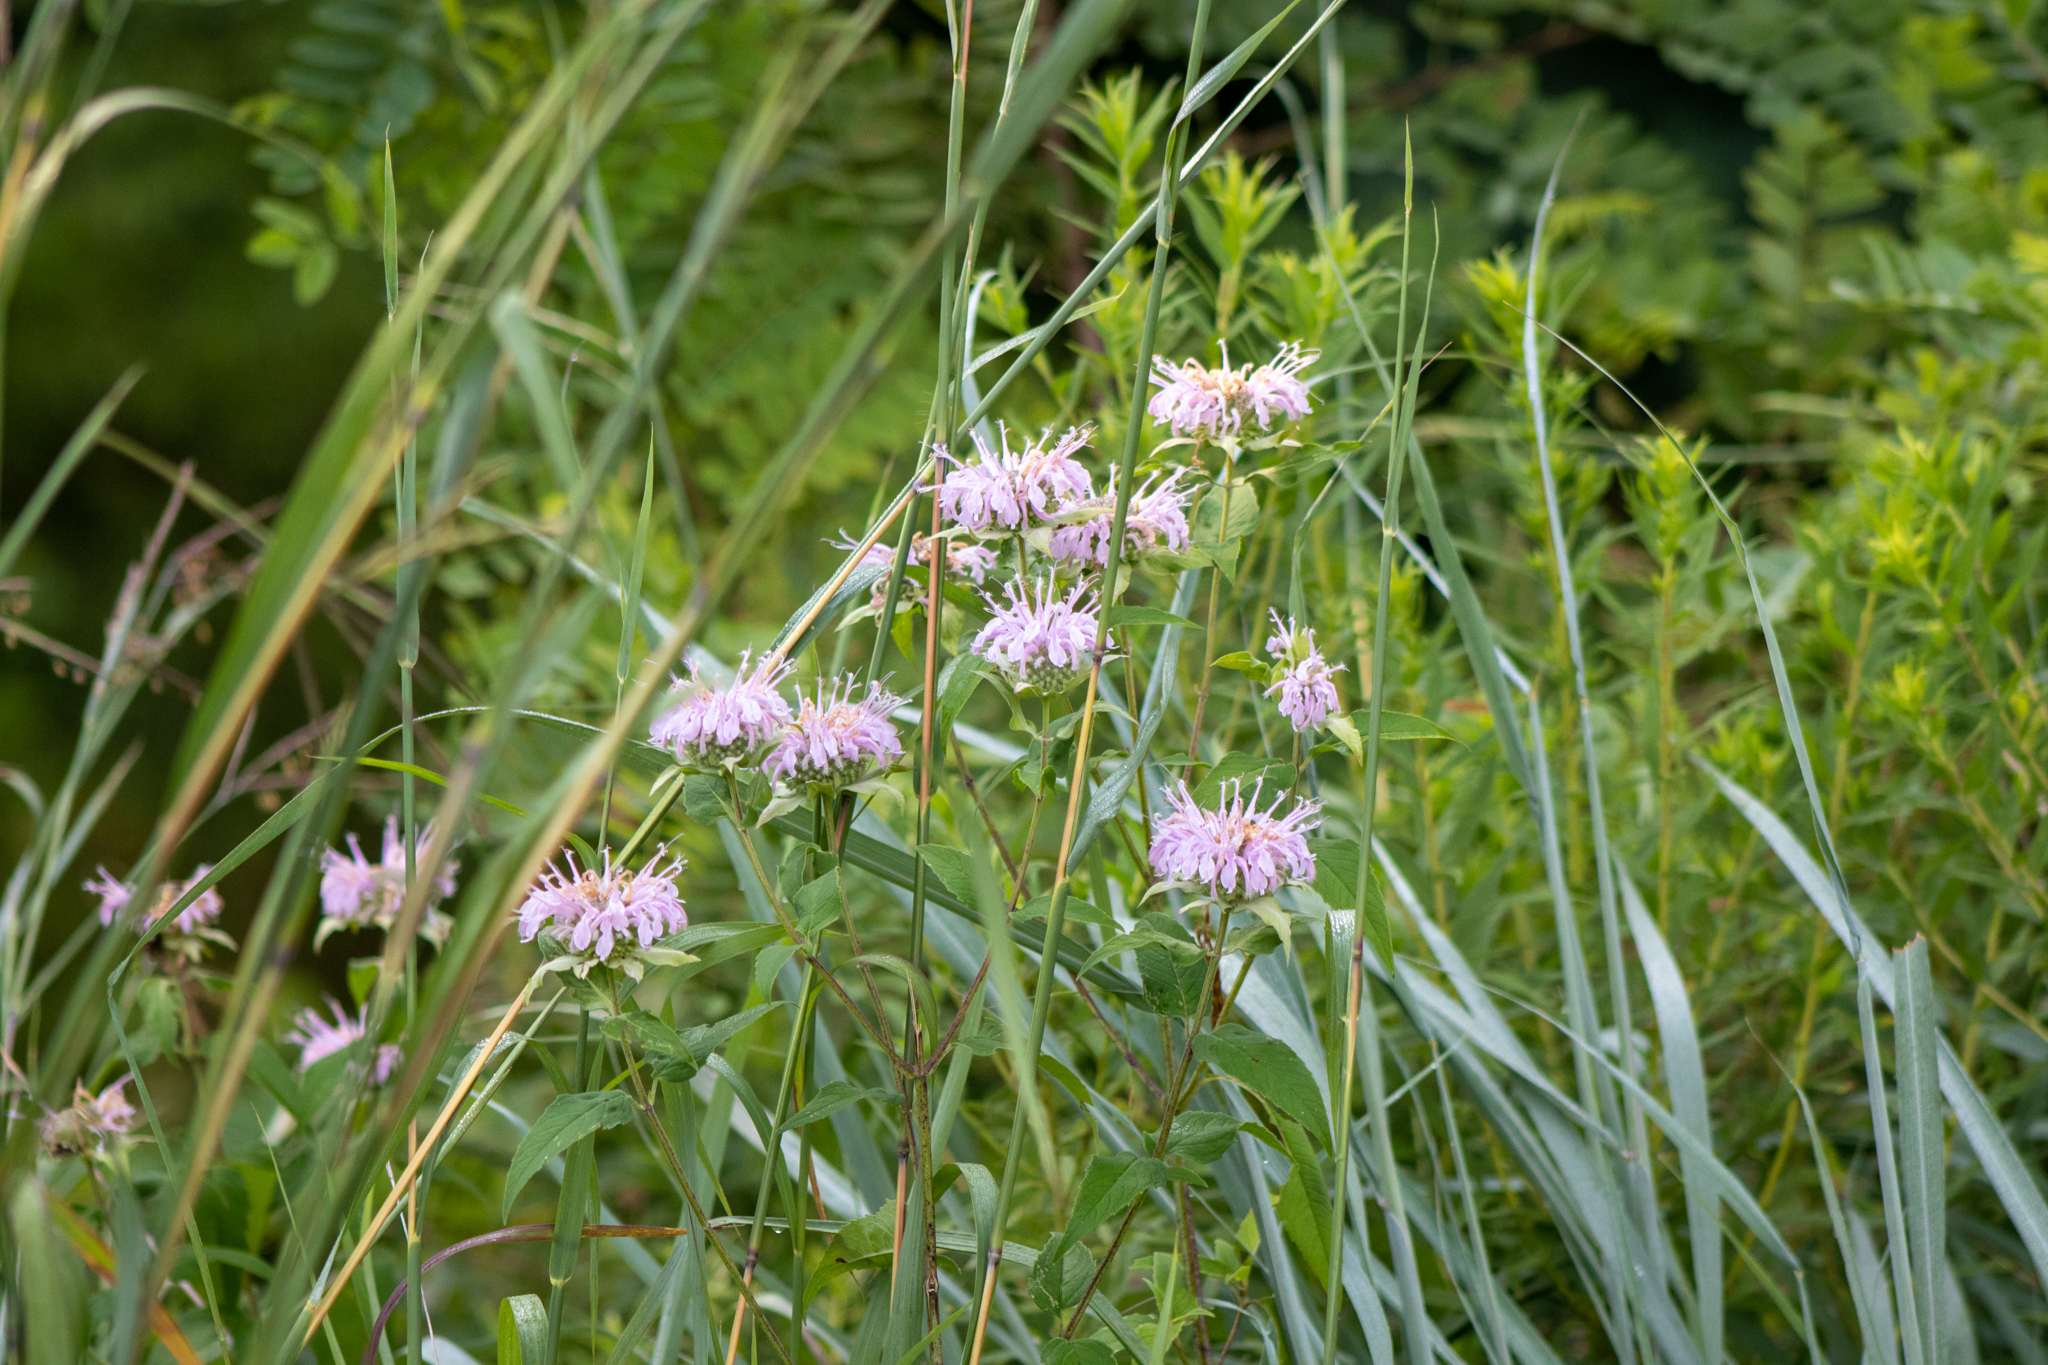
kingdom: Plantae
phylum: Tracheophyta
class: Magnoliopsida
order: Lamiales
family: Lamiaceae
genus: Monarda
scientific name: Monarda fistulosa
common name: Purple beebalm
